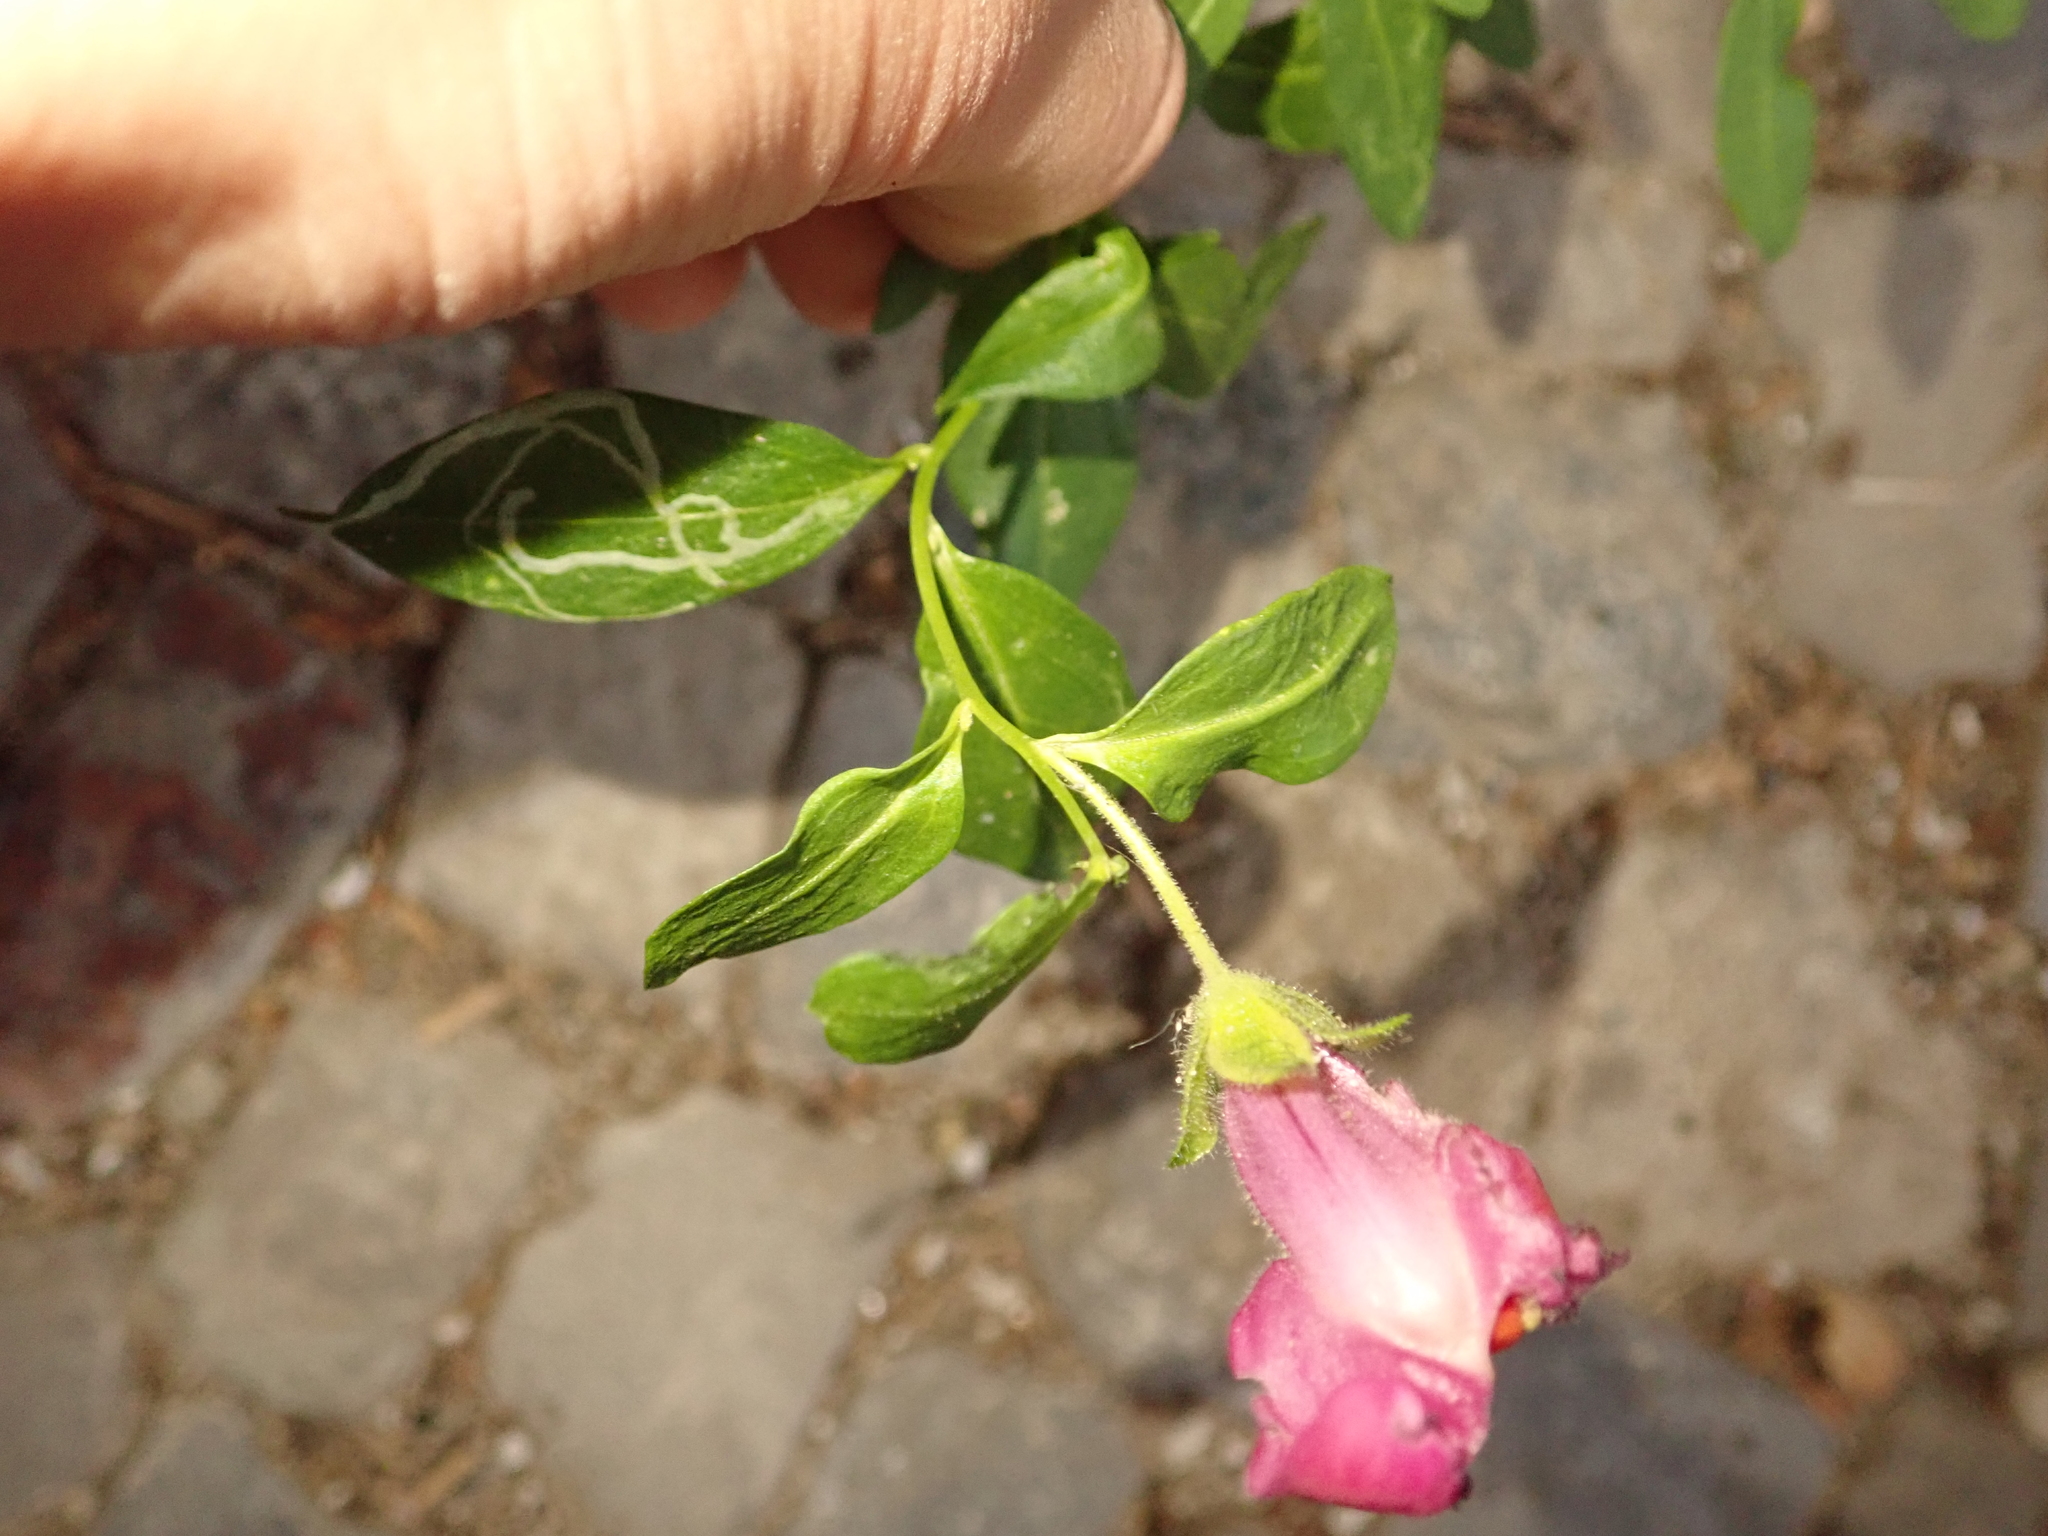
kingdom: Plantae
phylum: Tracheophyta
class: Magnoliopsida
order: Lamiales
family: Plantaginaceae
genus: Antirrhinum
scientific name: Antirrhinum majus
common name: Snapdragon
